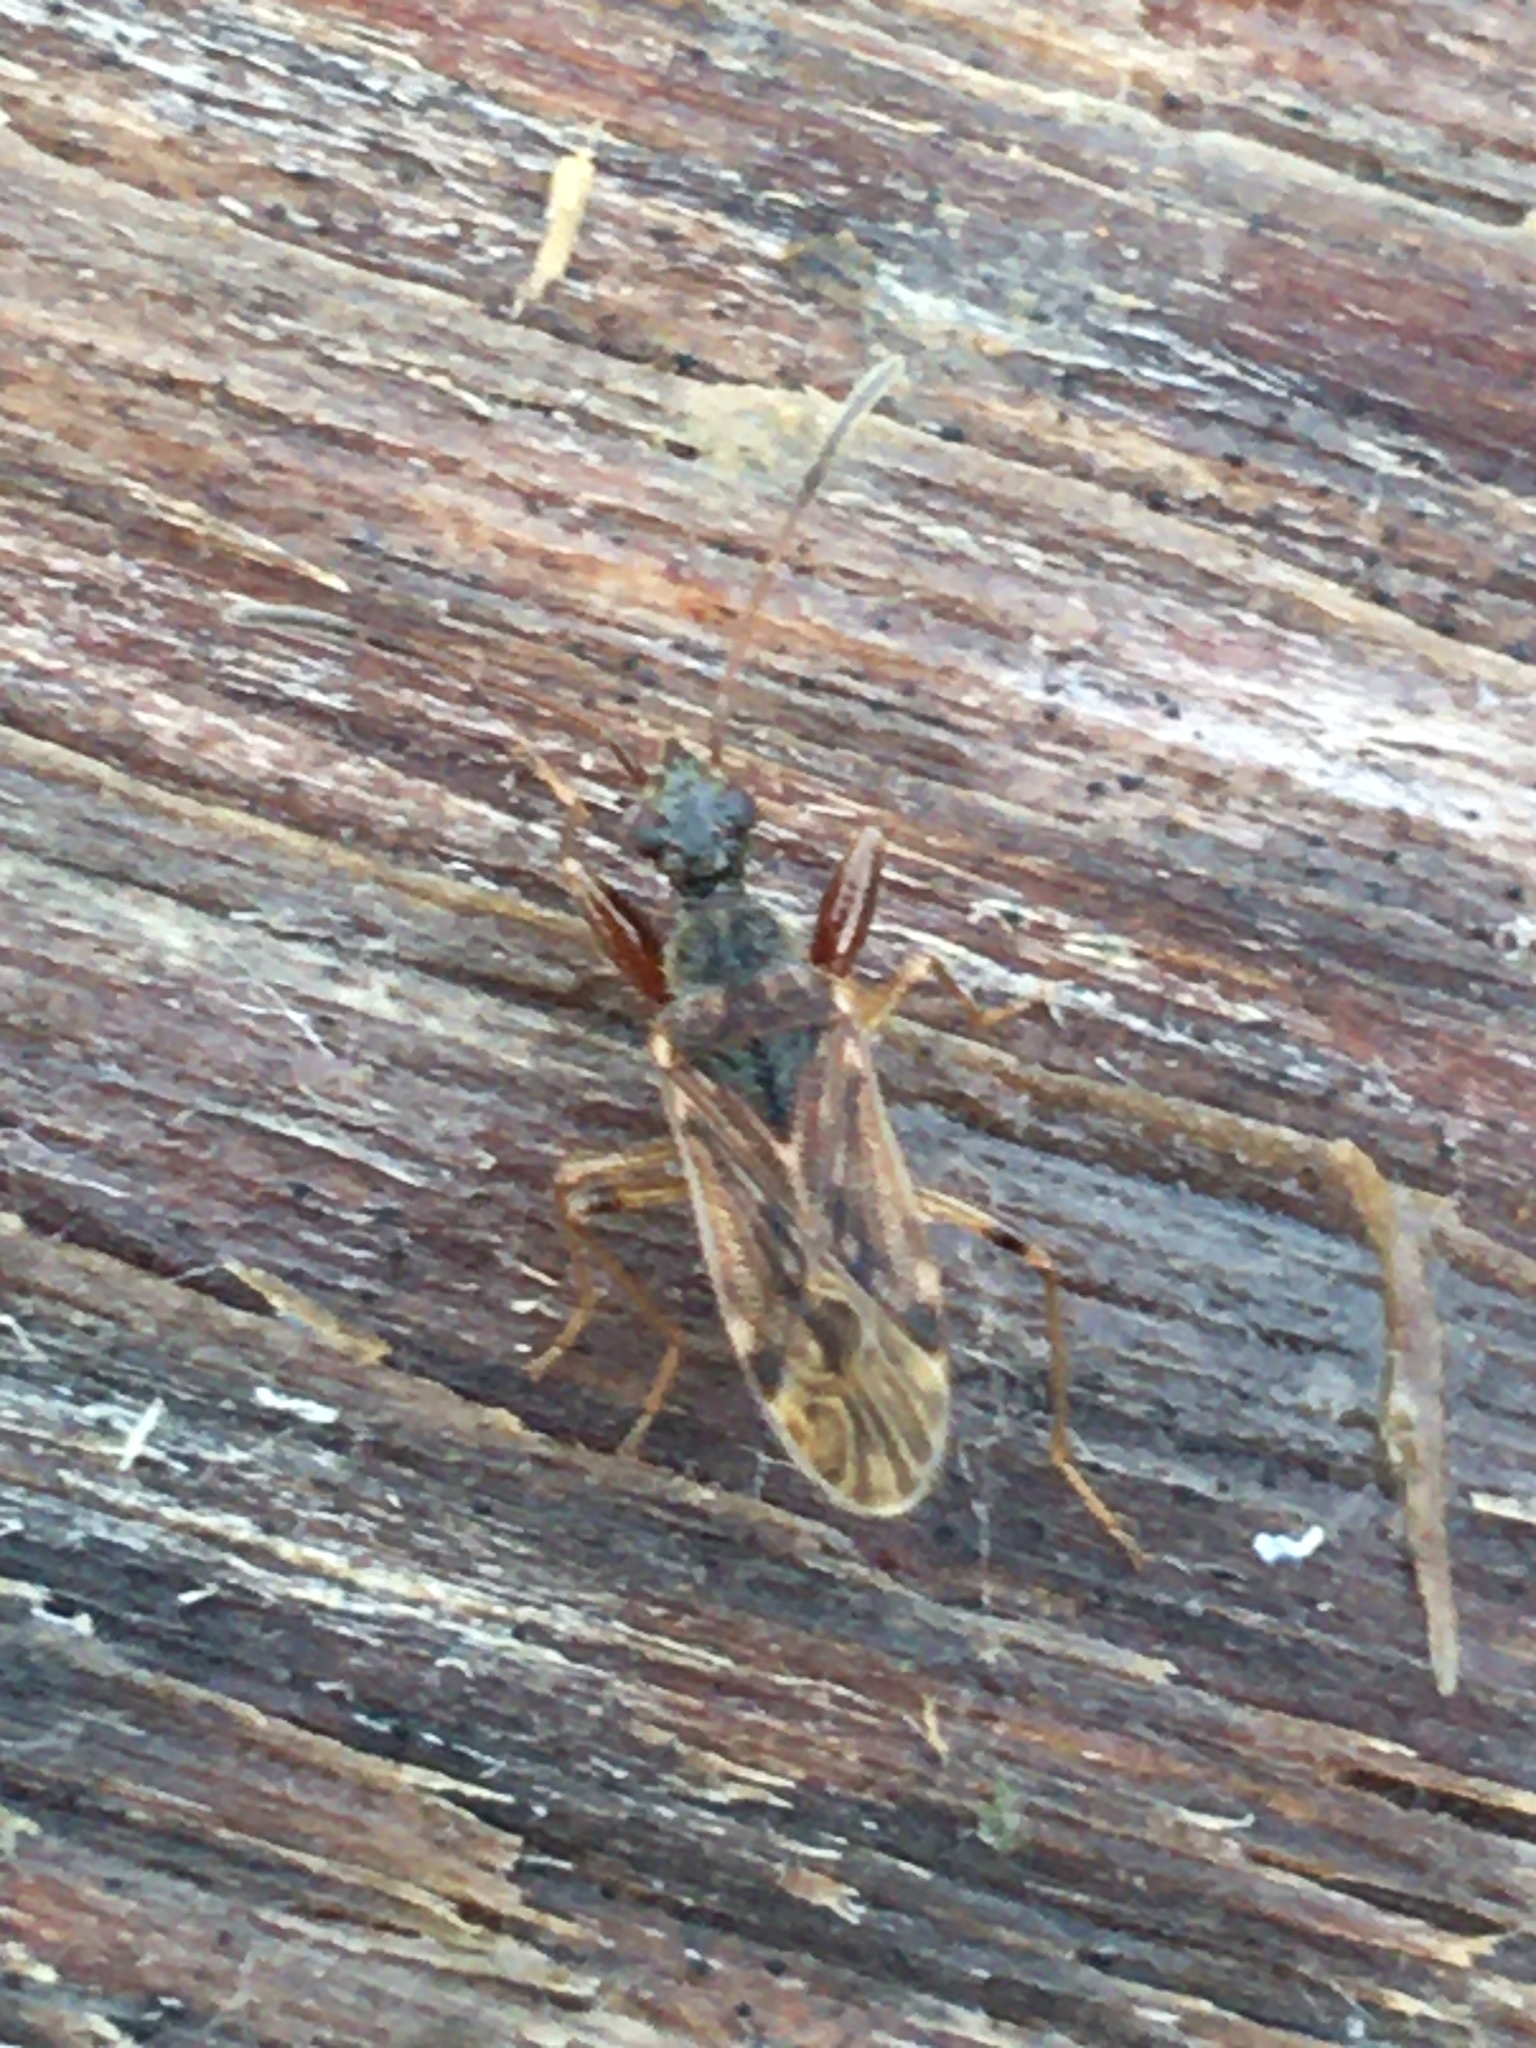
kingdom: Animalia
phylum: Arthropoda
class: Insecta
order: Hemiptera
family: Rhyparochromidae
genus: Heraeus
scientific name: Heraeus plebejus
